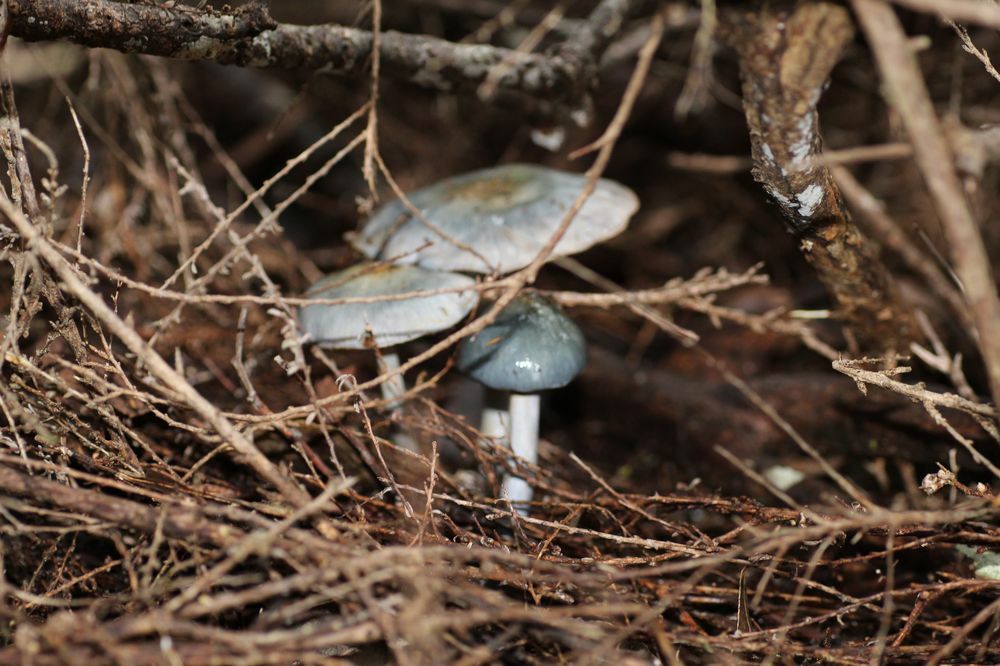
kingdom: Fungi
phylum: Basidiomycota
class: Agaricomycetes
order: Agaricales
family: Cortinariaceae
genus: Cortinarius
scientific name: Cortinarius rotundisporus
